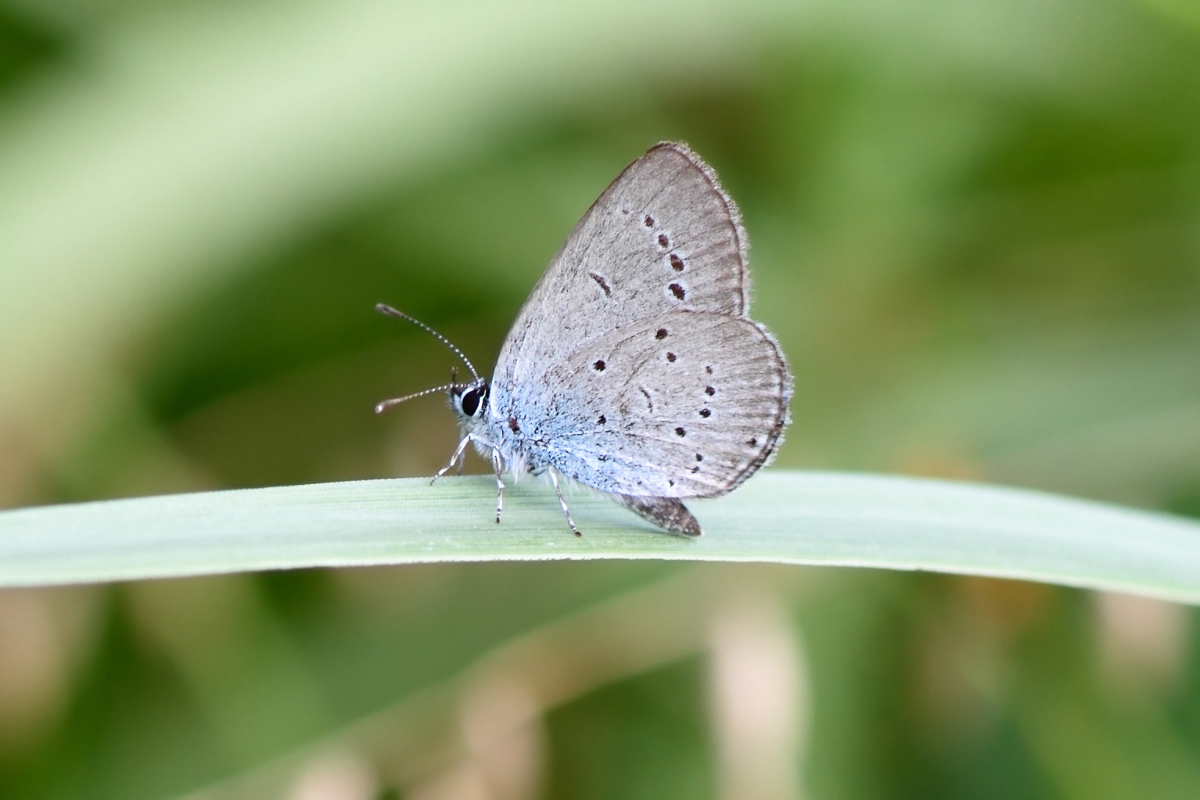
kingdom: Animalia
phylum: Arthropoda
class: Insecta
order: Lepidoptera
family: Lycaenidae
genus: Cupido
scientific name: Cupido minimus
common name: Small blue
